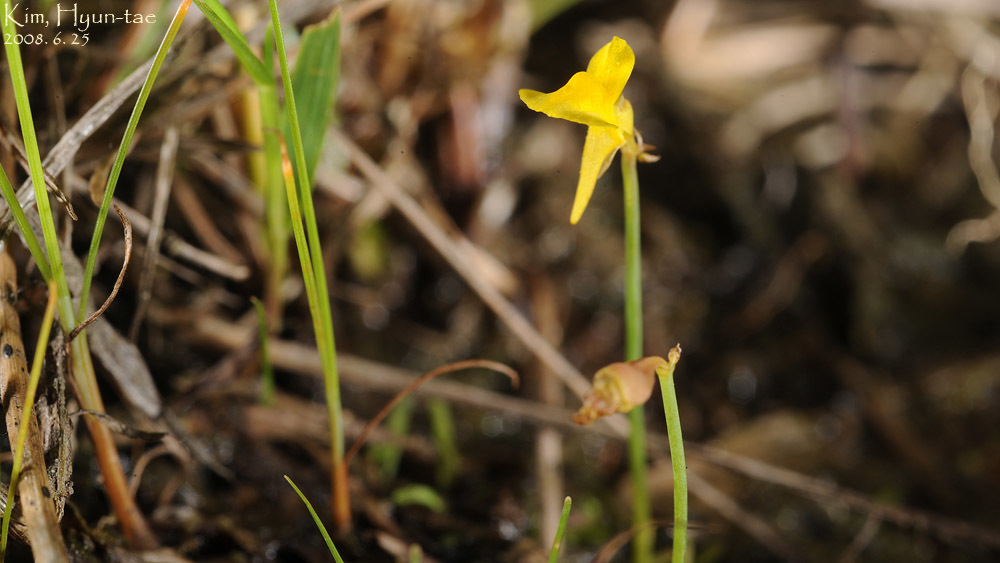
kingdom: Plantae
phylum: Tracheophyta
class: Magnoliopsida
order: Lamiales
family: Lentibulariaceae
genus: Utricularia
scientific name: Utricularia bifida
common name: Bifid bladderwort
